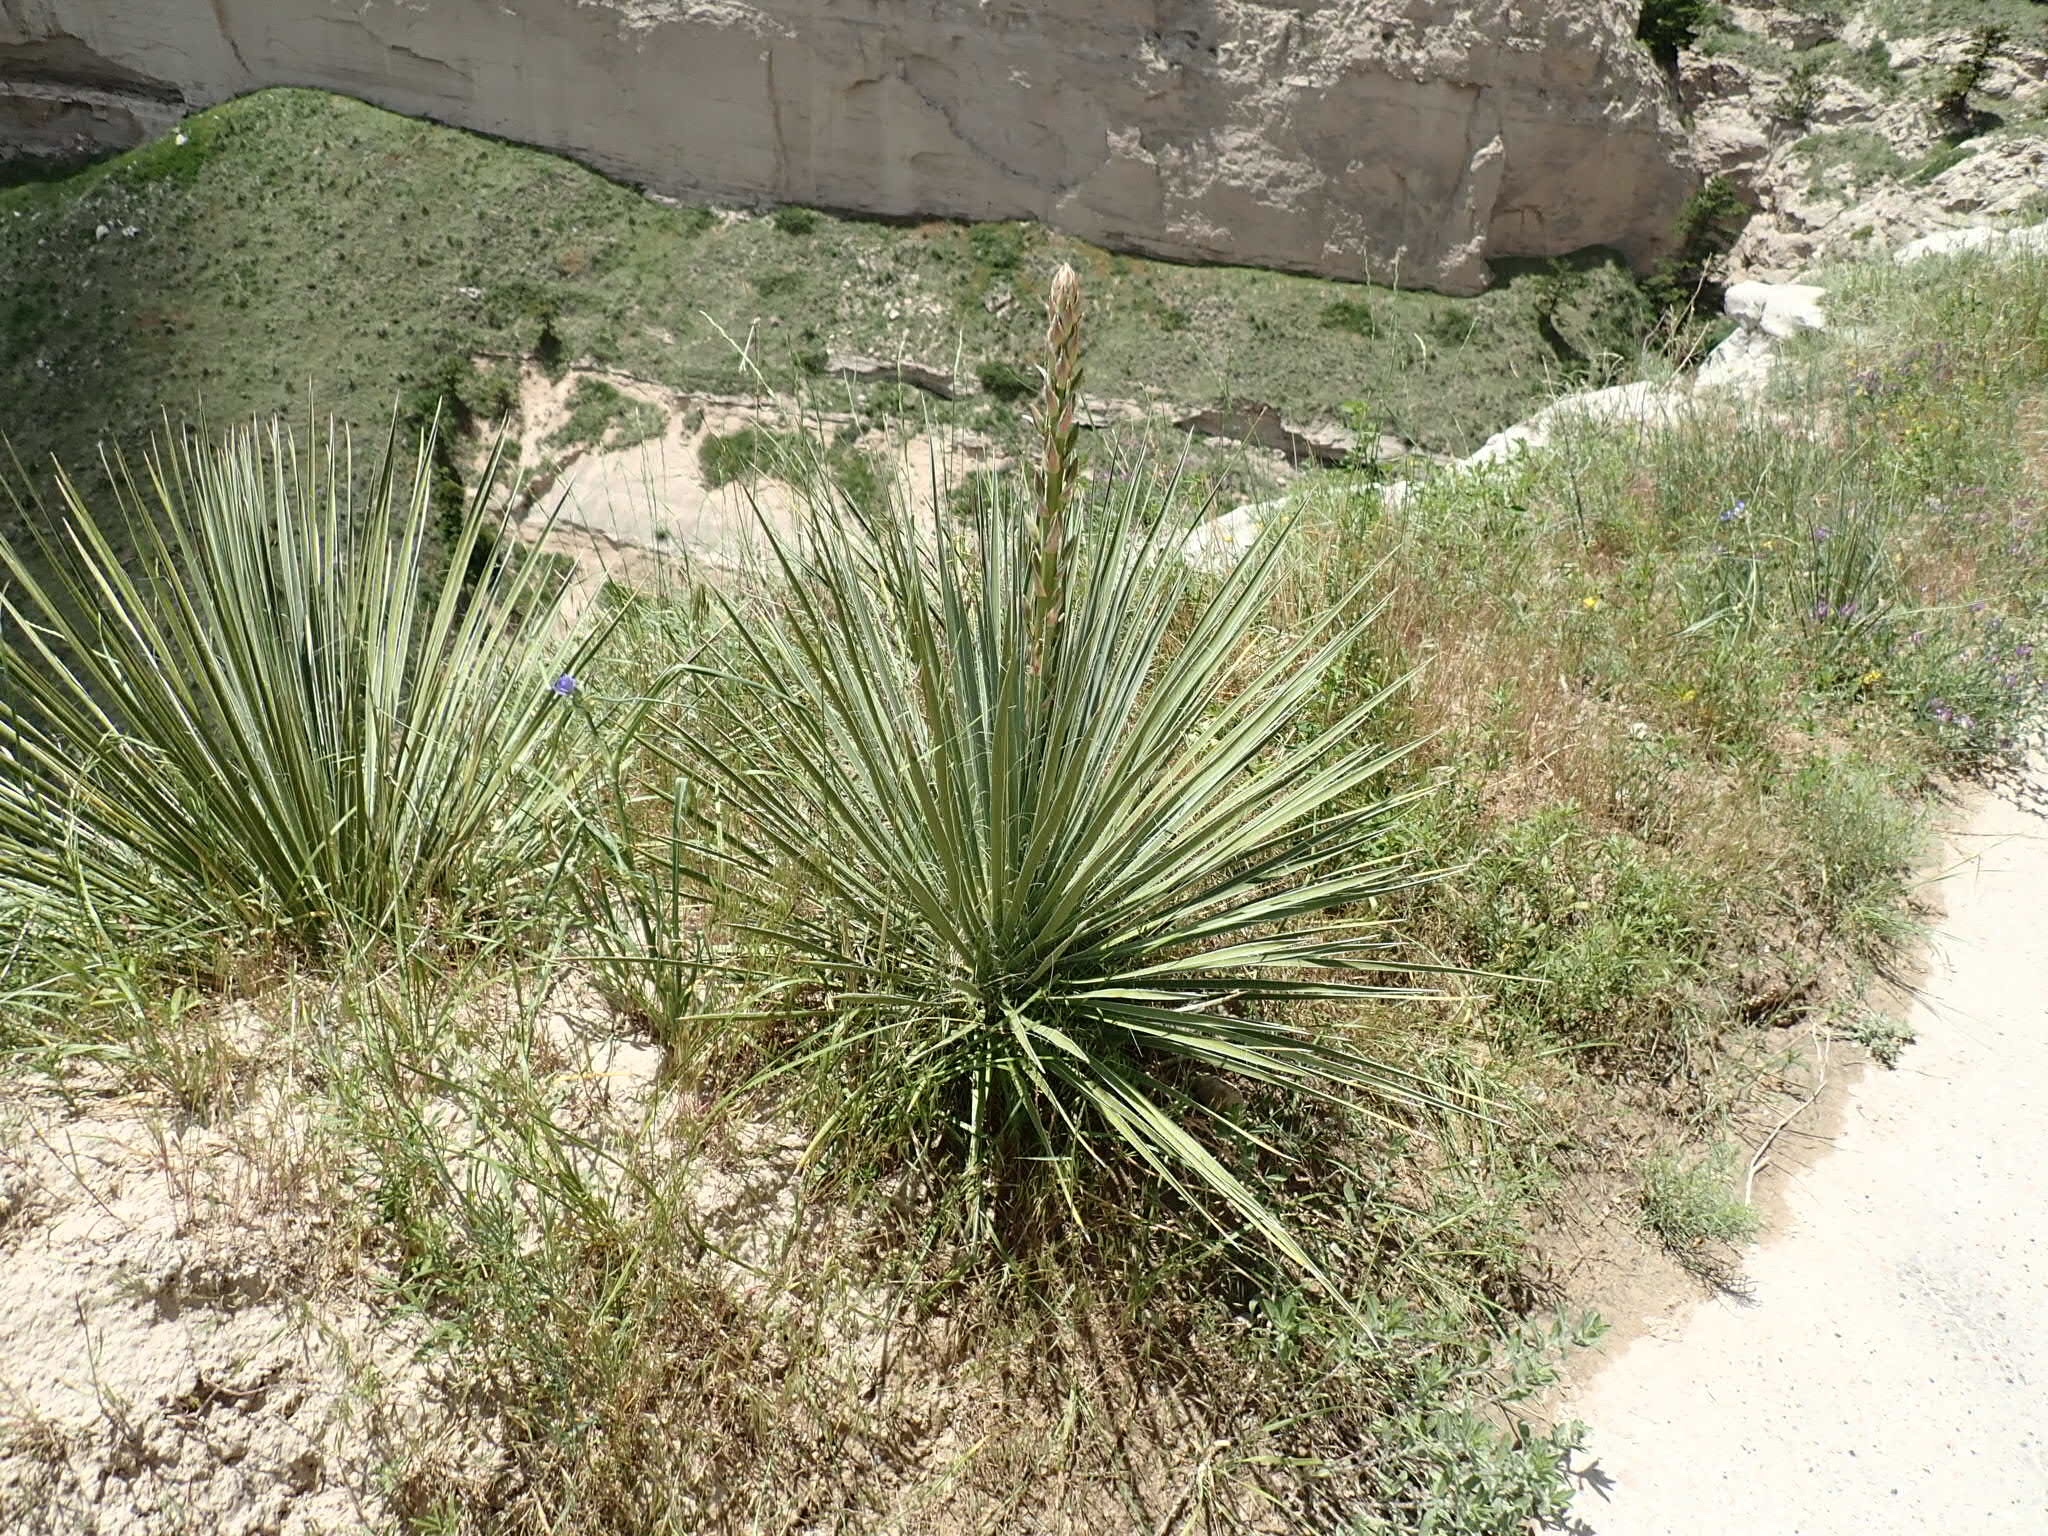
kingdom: Plantae
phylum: Tracheophyta
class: Liliopsida
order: Asparagales
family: Asparagaceae
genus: Yucca
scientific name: Yucca glauca
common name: Great plains yucca
